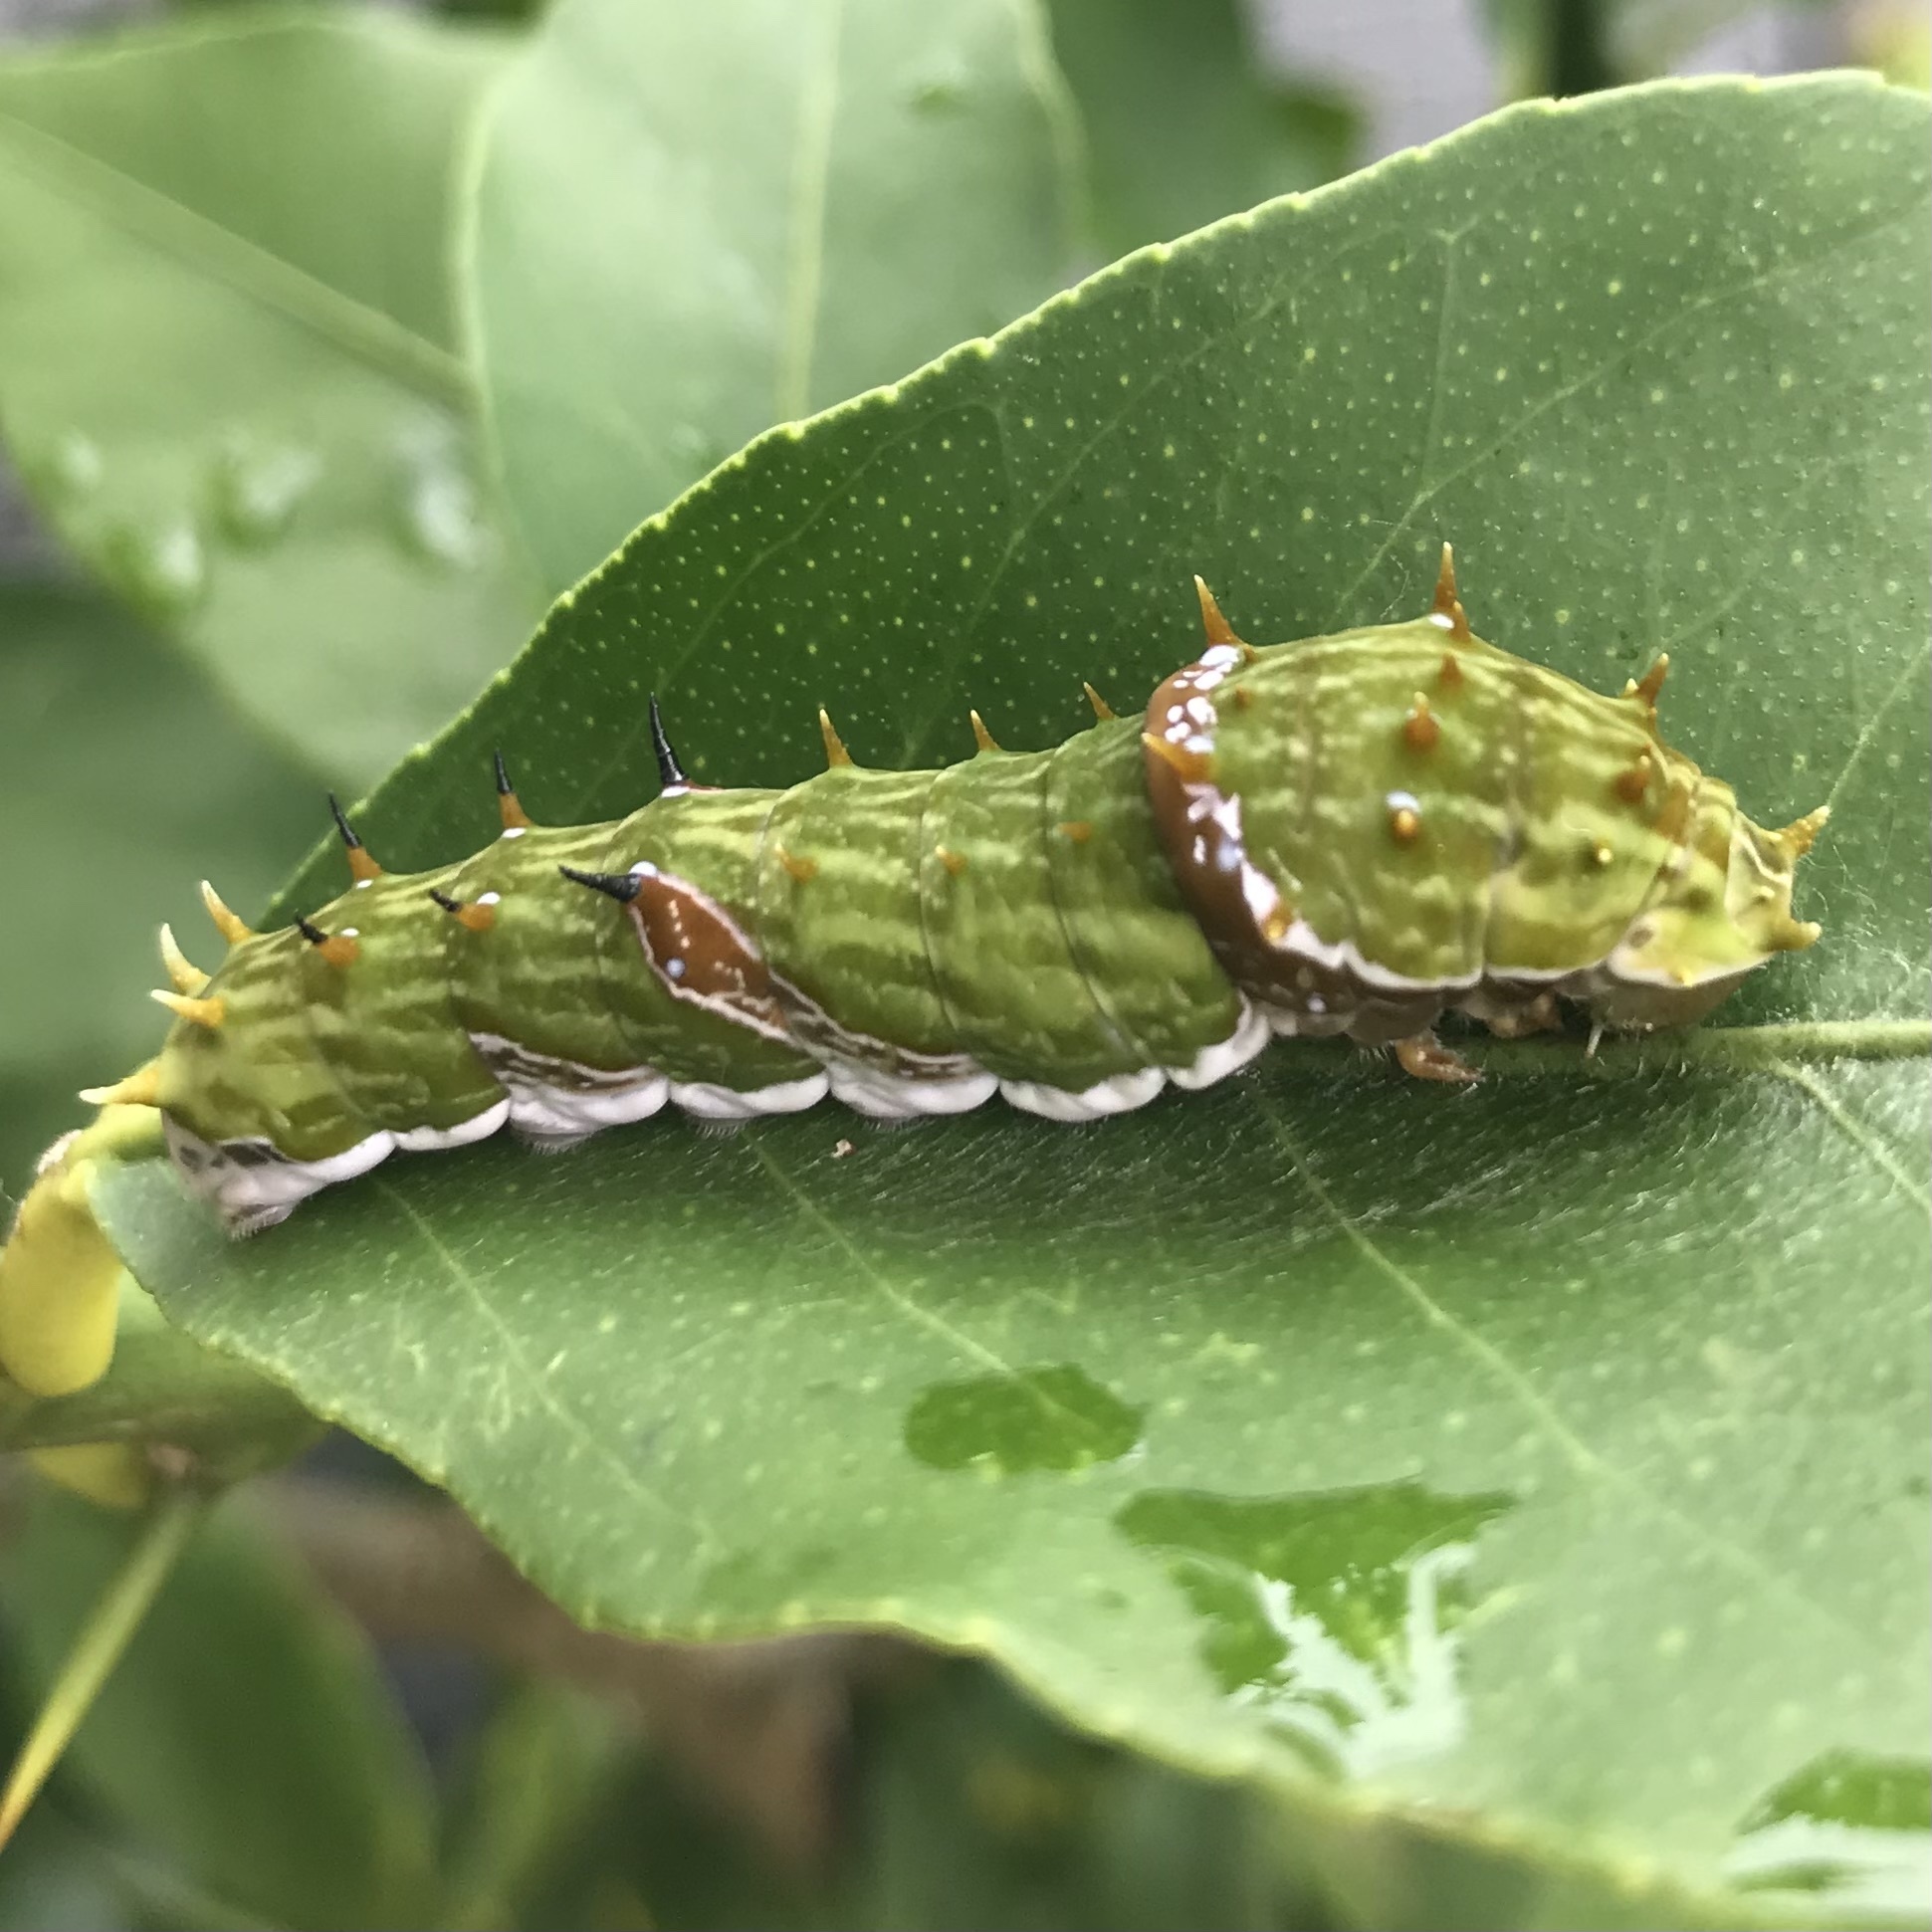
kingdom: Animalia
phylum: Arthropoda
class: Insecta
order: Lepidoptera
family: Papilionidae
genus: Papilio
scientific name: Papilio aegeus
